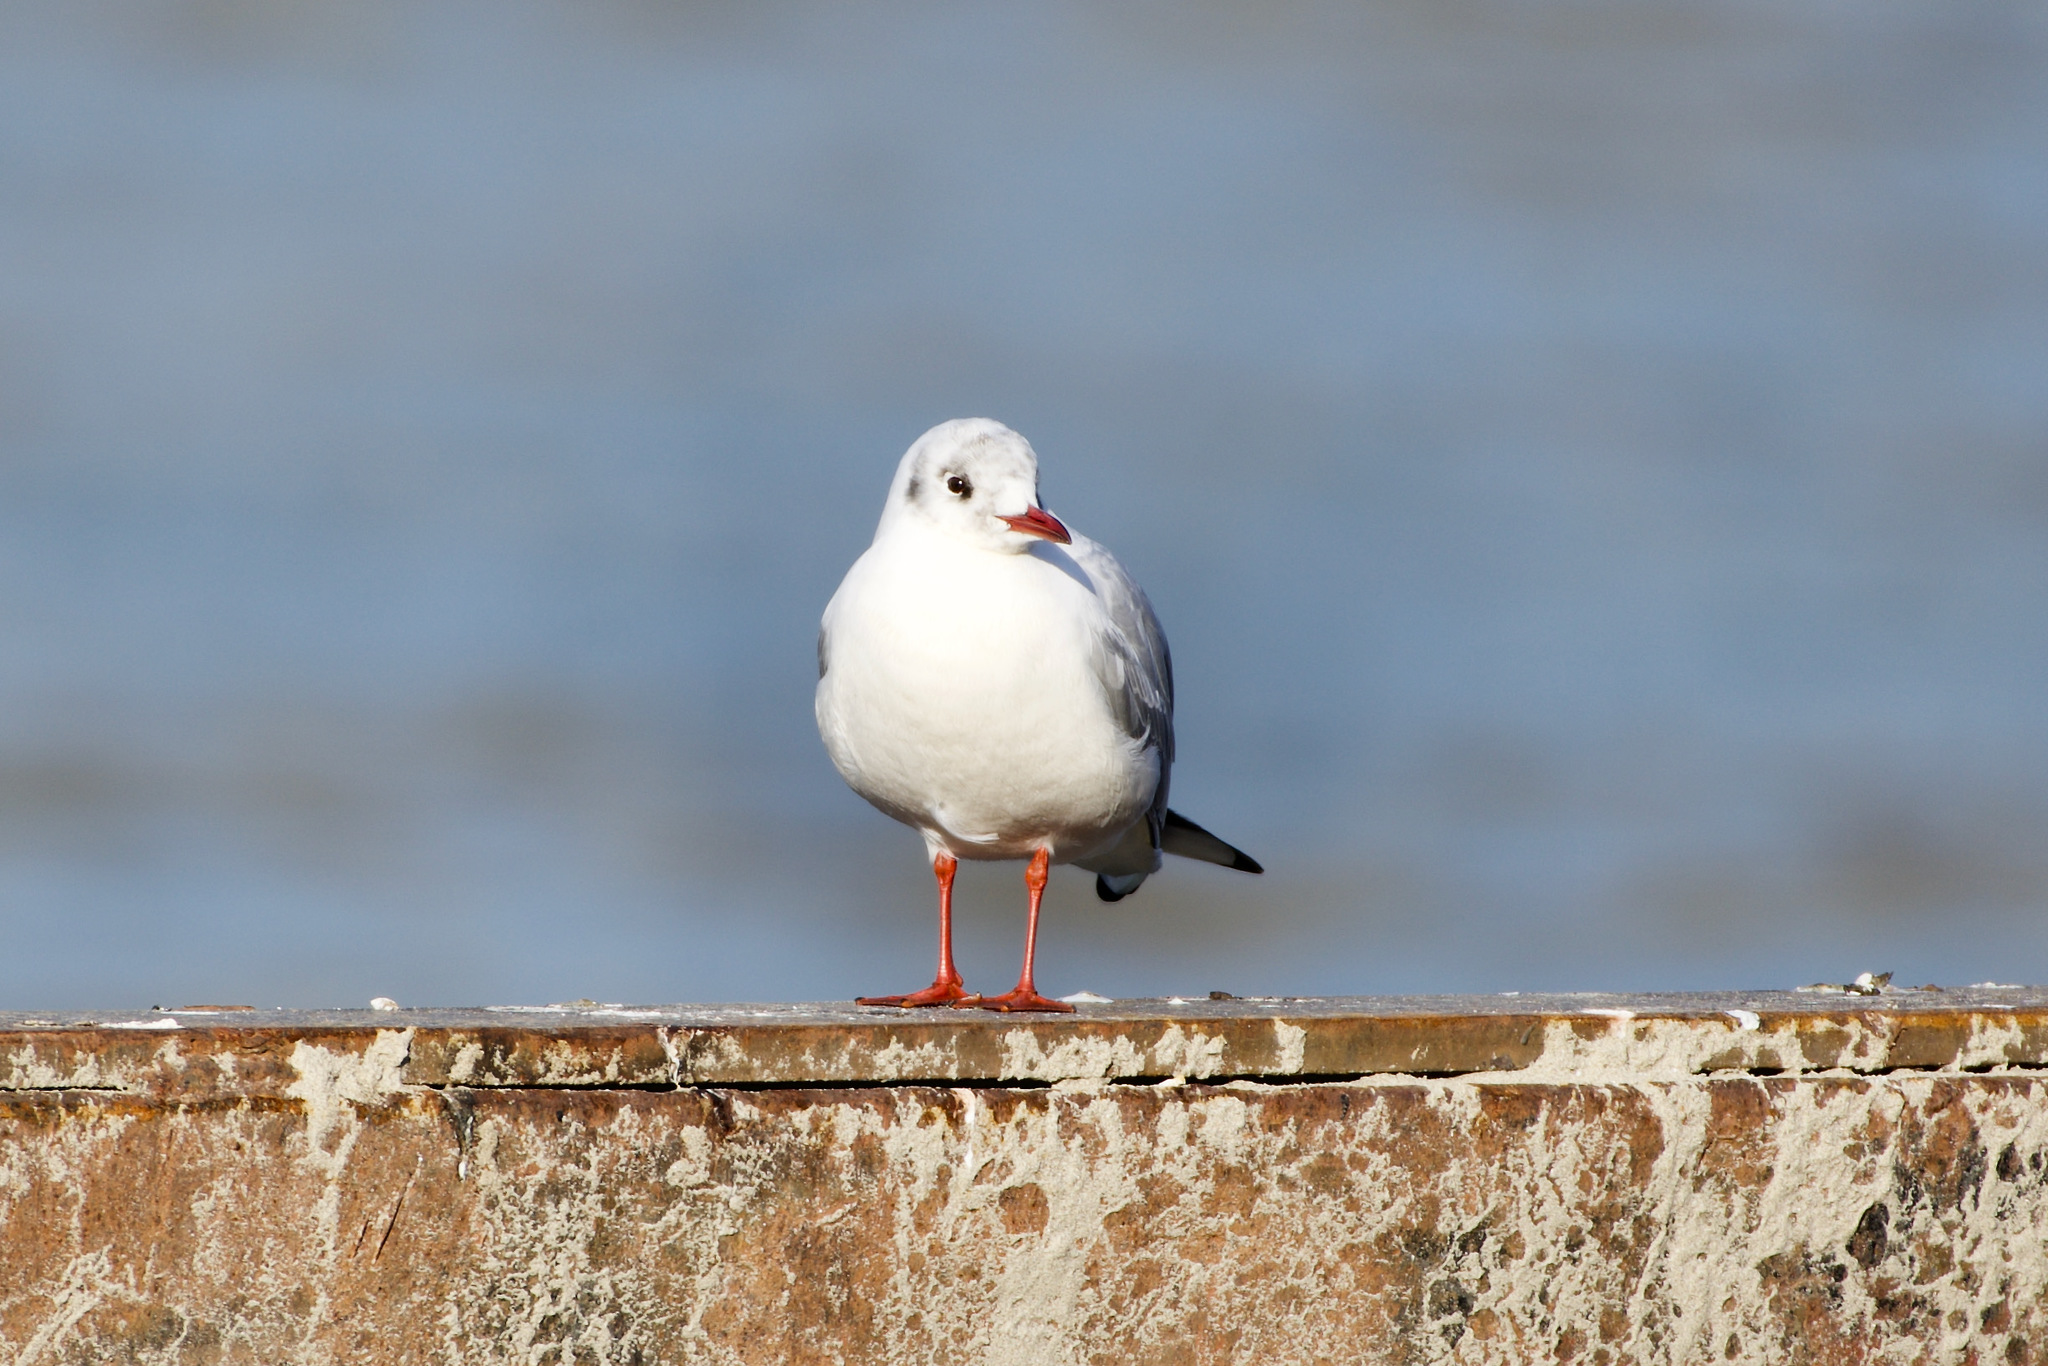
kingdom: Animalia
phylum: Chordata
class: Aves
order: Charadriiformes
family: Laridae
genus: Chroicocephalus
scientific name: Chroicocephalus ridibundus
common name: Black-headed gull
